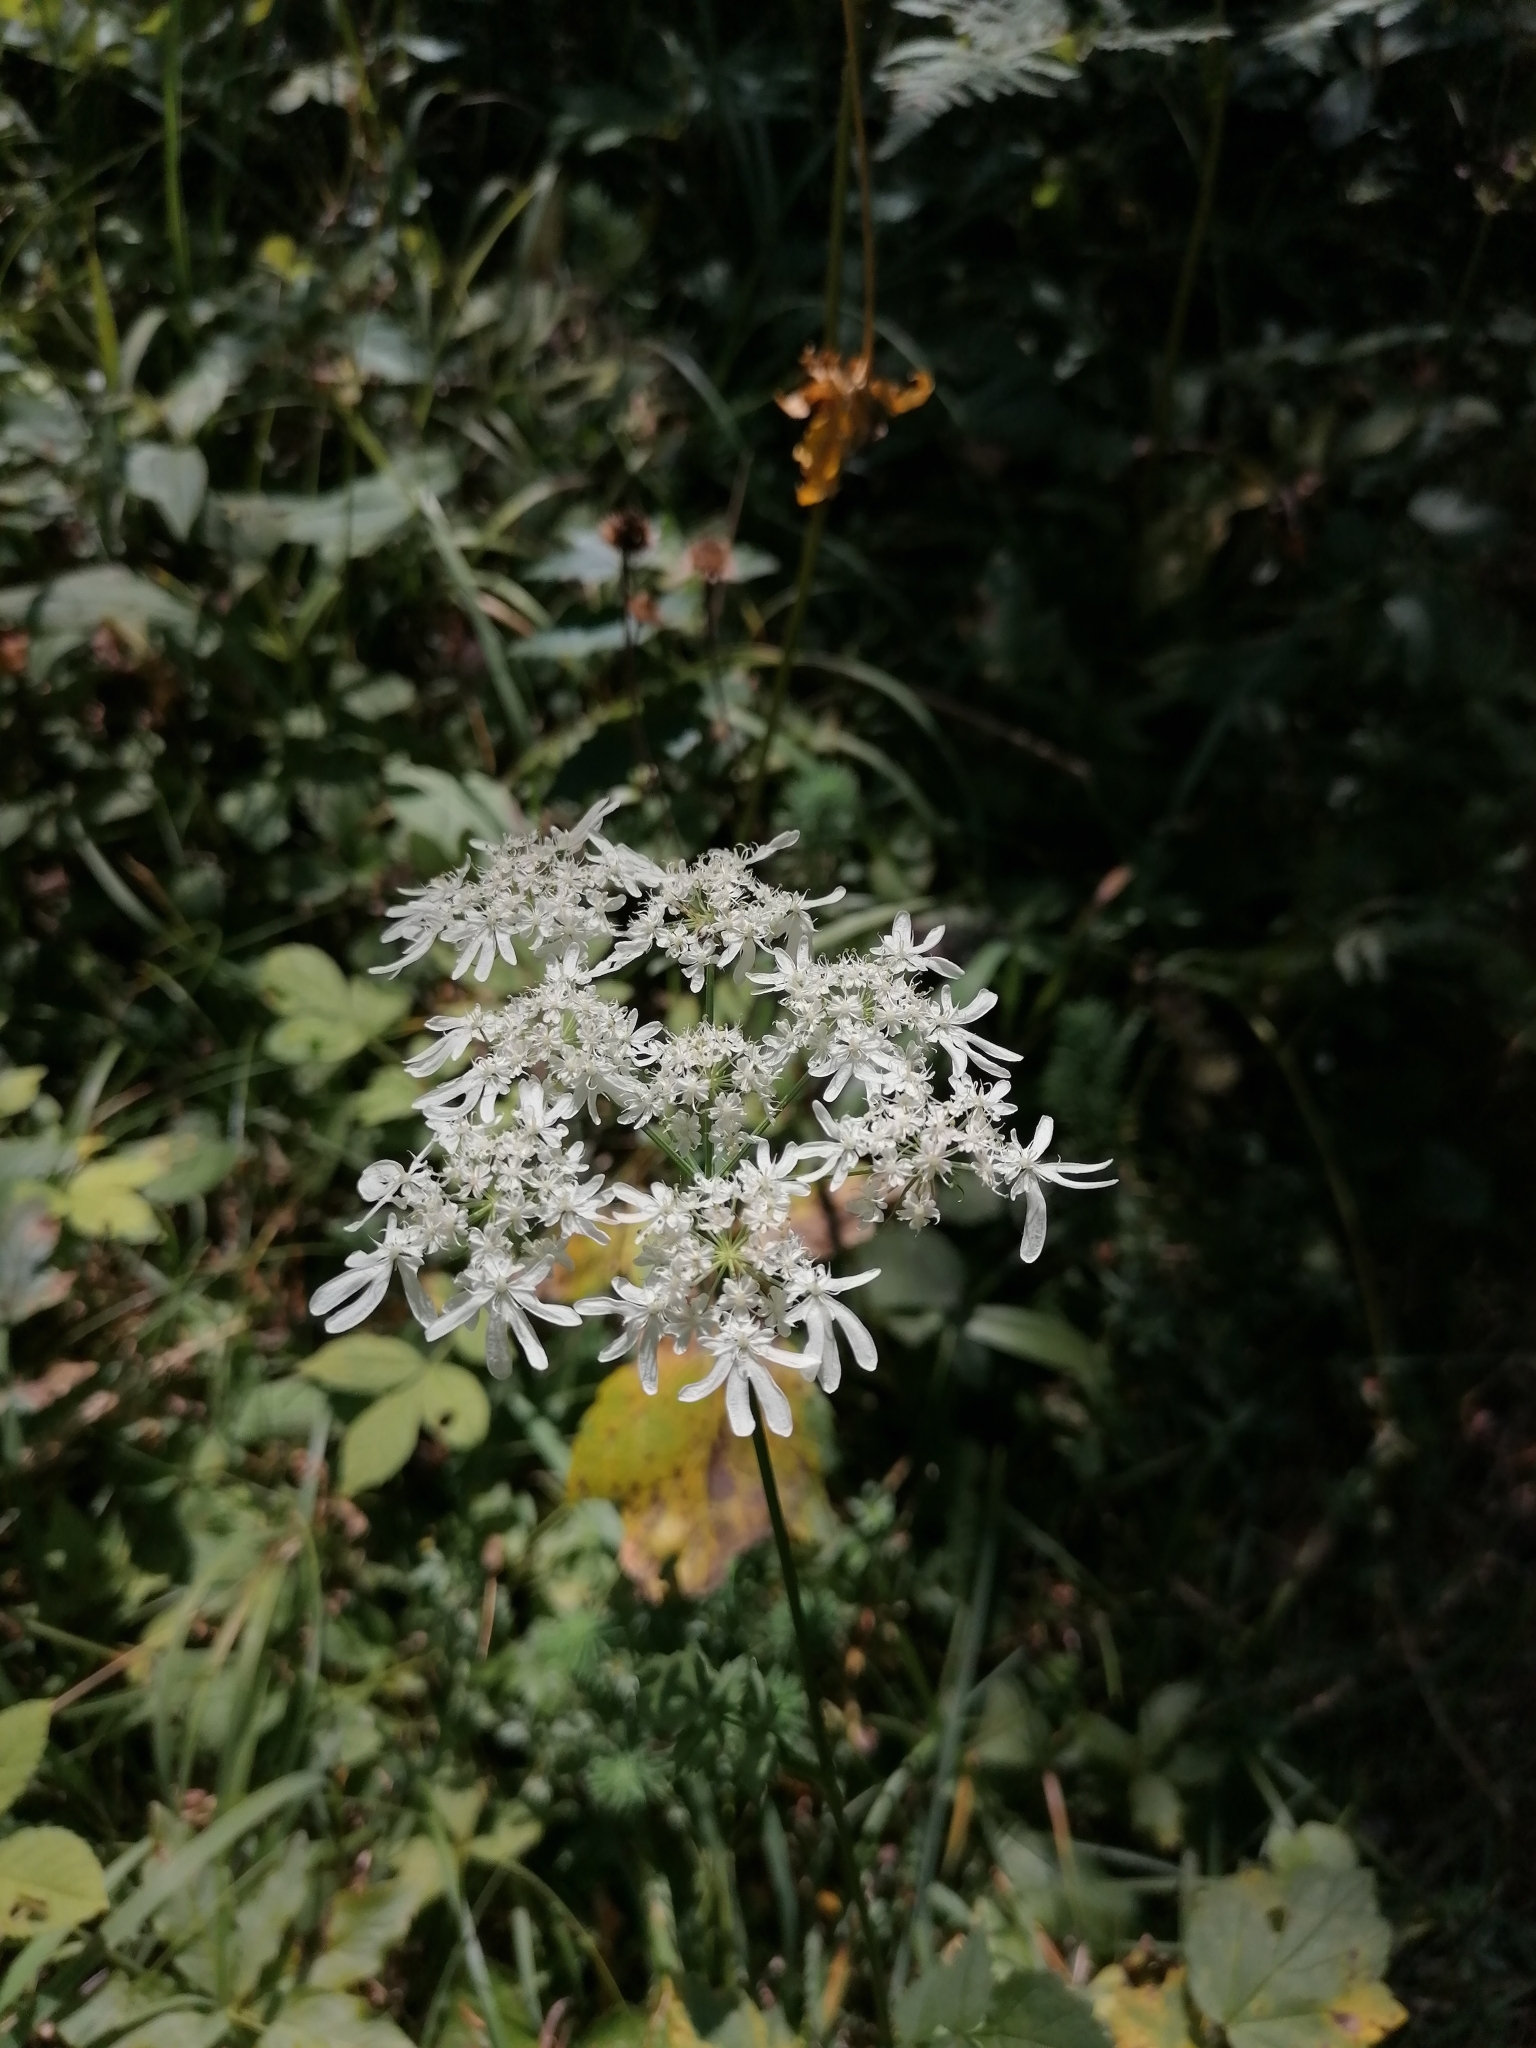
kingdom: Plantae
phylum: Tracheophyta
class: Magnoliopsida
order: Apiales
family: Apiaceae
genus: Heracleum
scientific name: Heracleum austriacum
